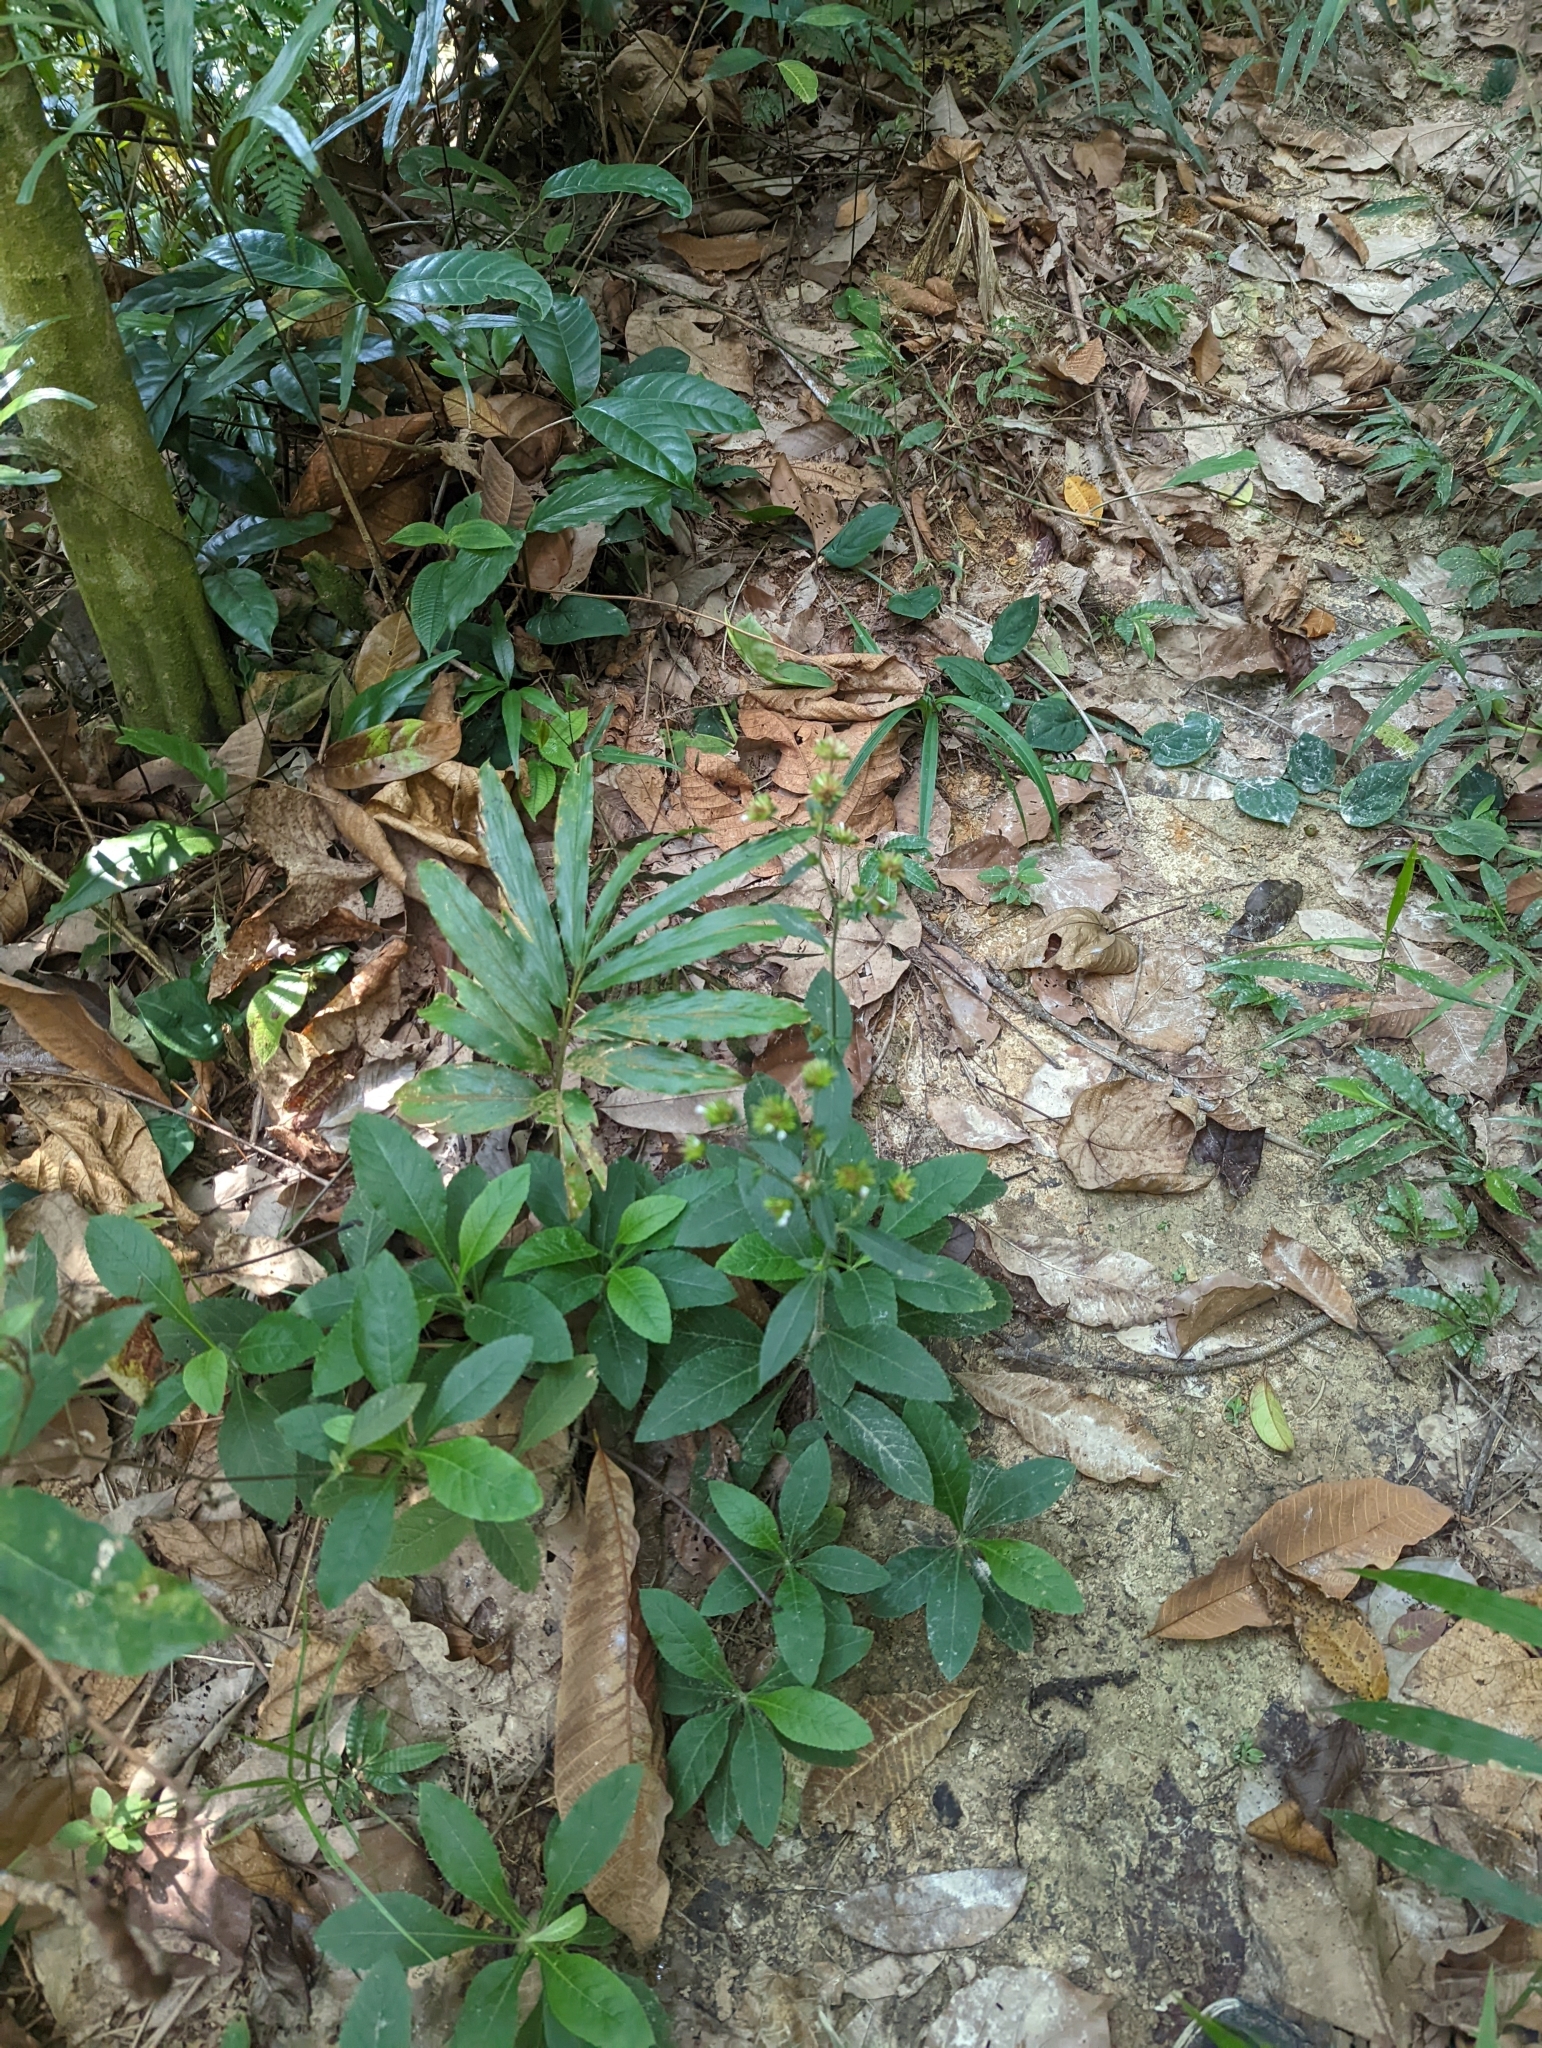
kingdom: Plantae
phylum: Tracheophyta
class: Magnoliopsida
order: Asterales
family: Asteraceae
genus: Elephantopus
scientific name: Elephantopus tomentosus
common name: Tobacco-weed
